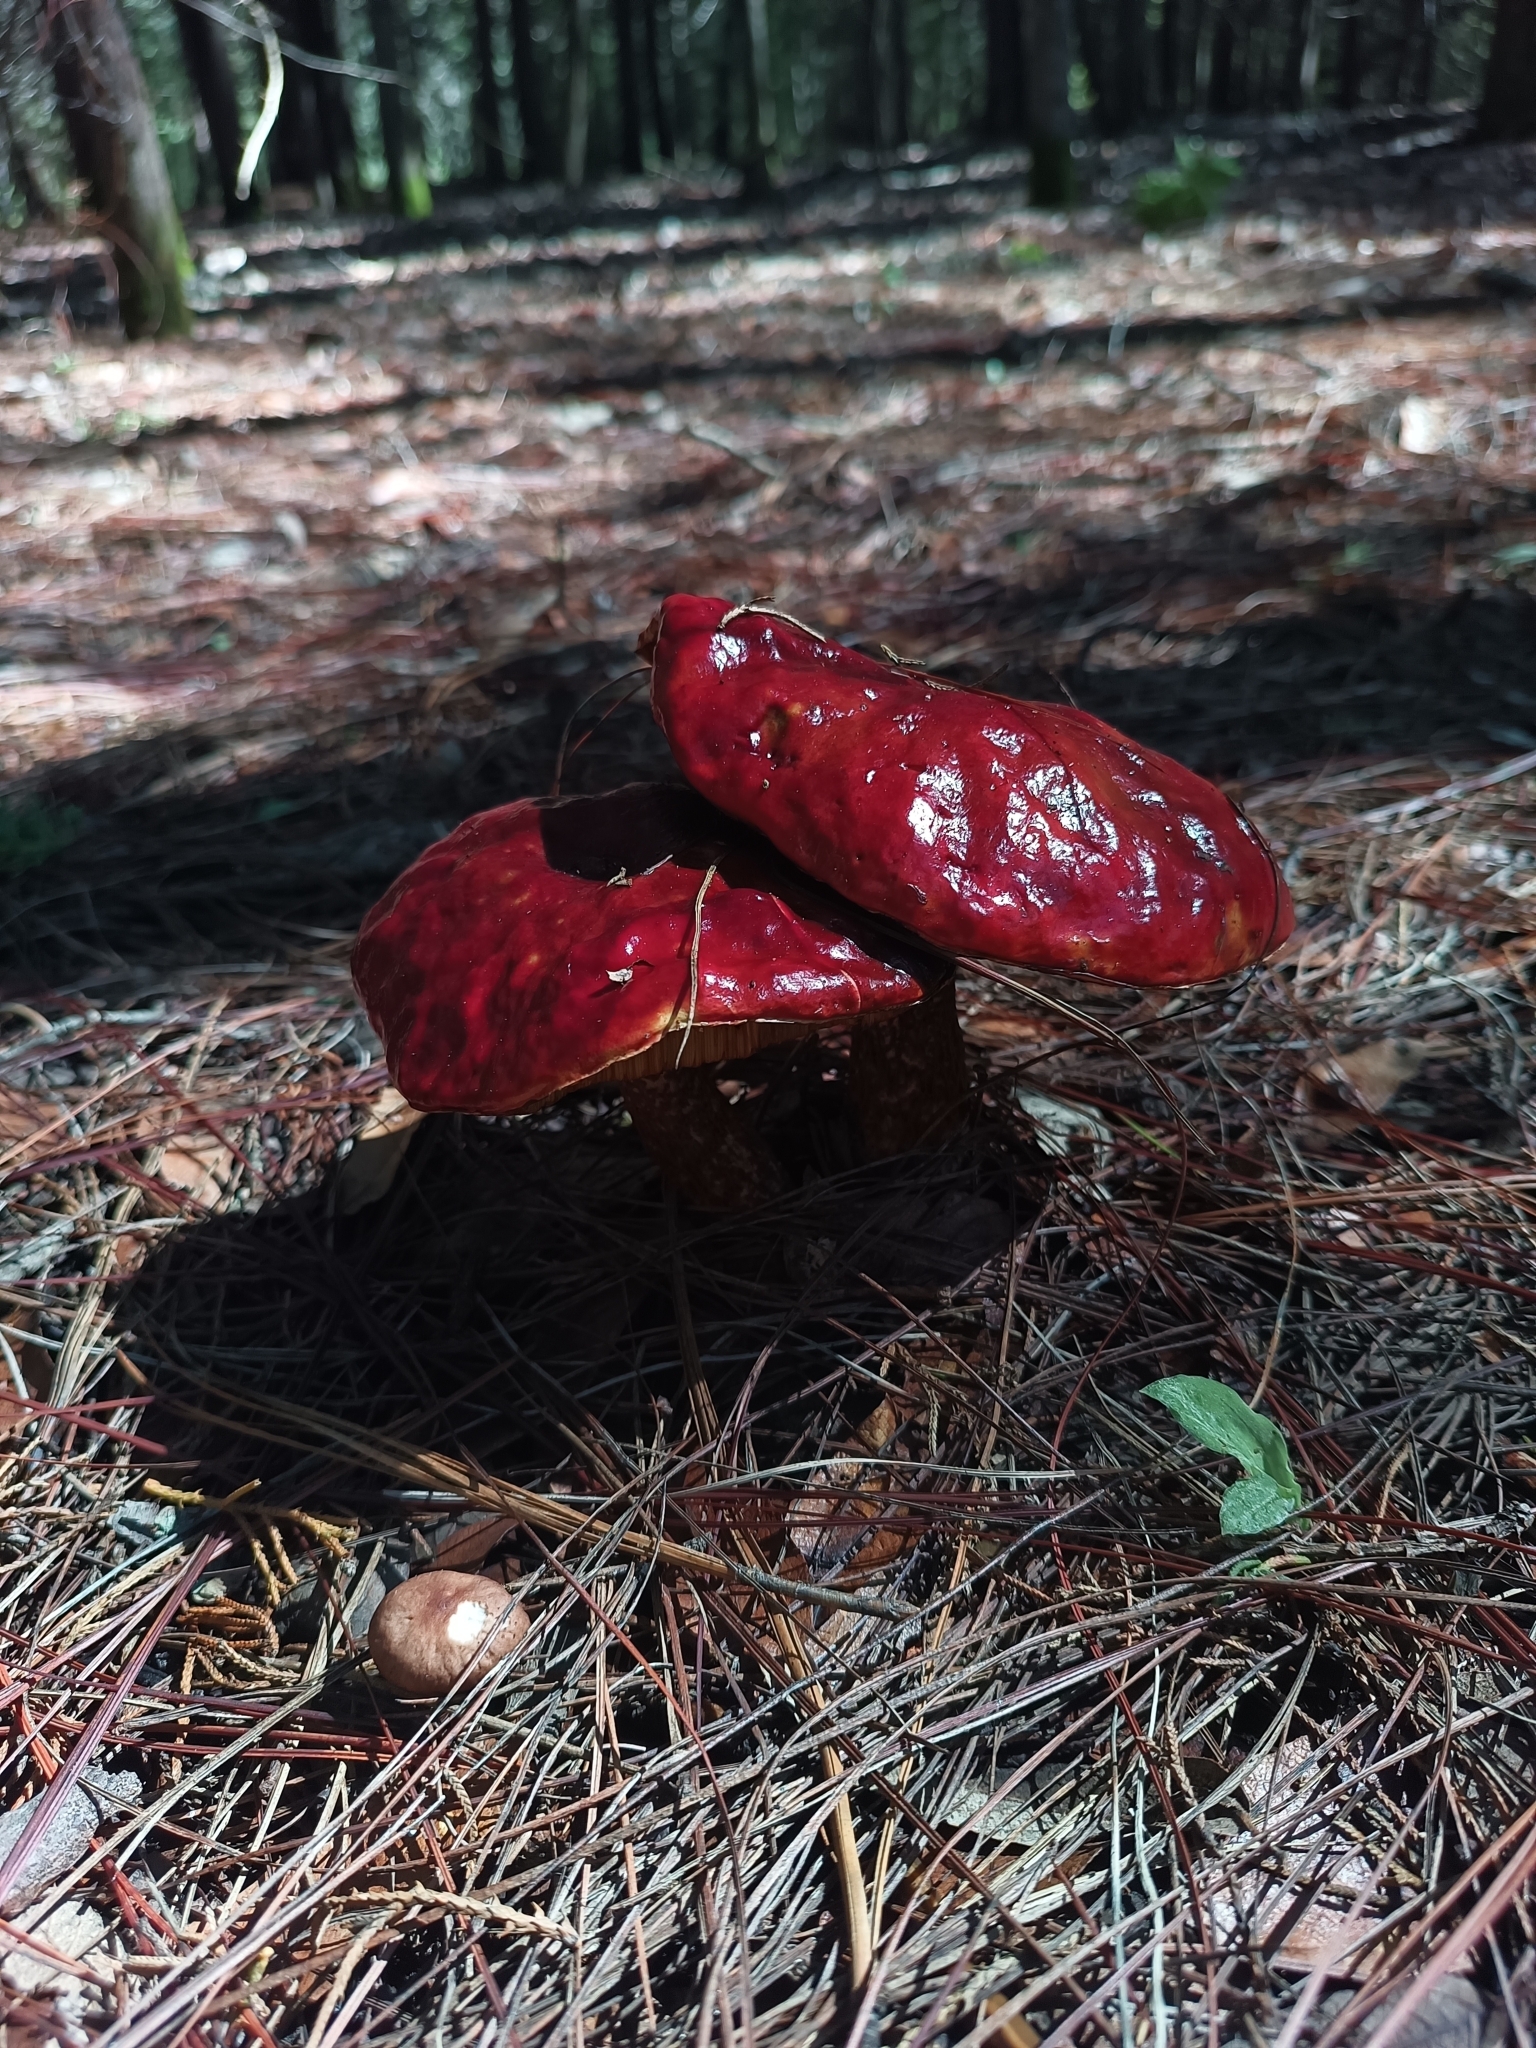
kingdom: Fungi
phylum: Basidiomycota
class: Agaricomycetes
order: Boletales
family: Boletaceae
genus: Butyriboletus
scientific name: Butyriboletus frostii
